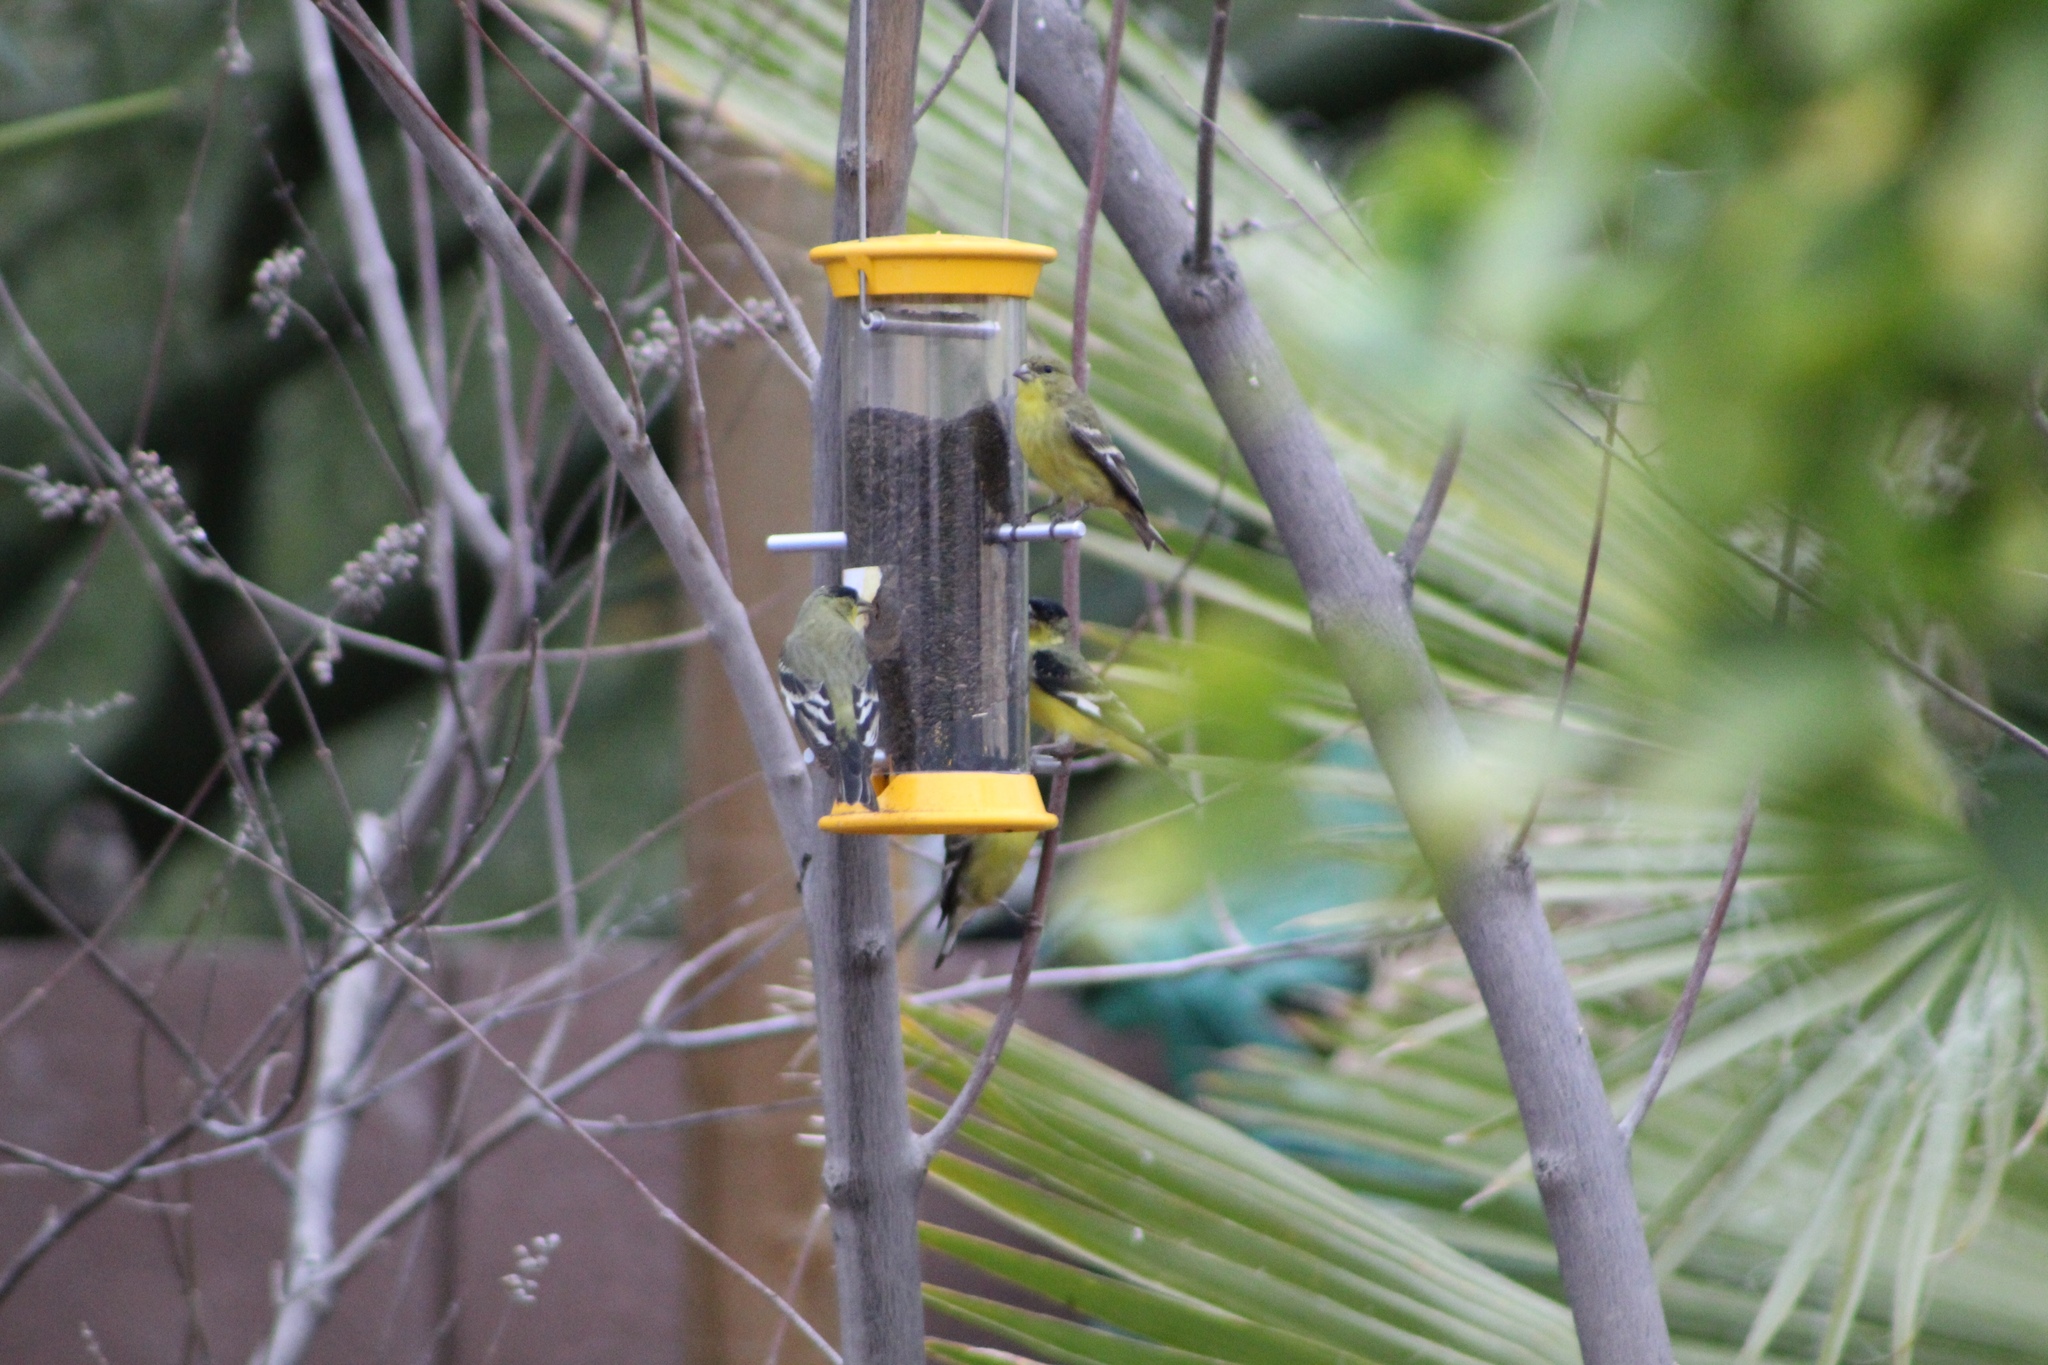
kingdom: Animalia
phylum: Chordata
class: Aves
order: Passeriformes
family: Fringillidae
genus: Spinus
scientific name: Spinus psaltria
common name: Lesser goldfinch
